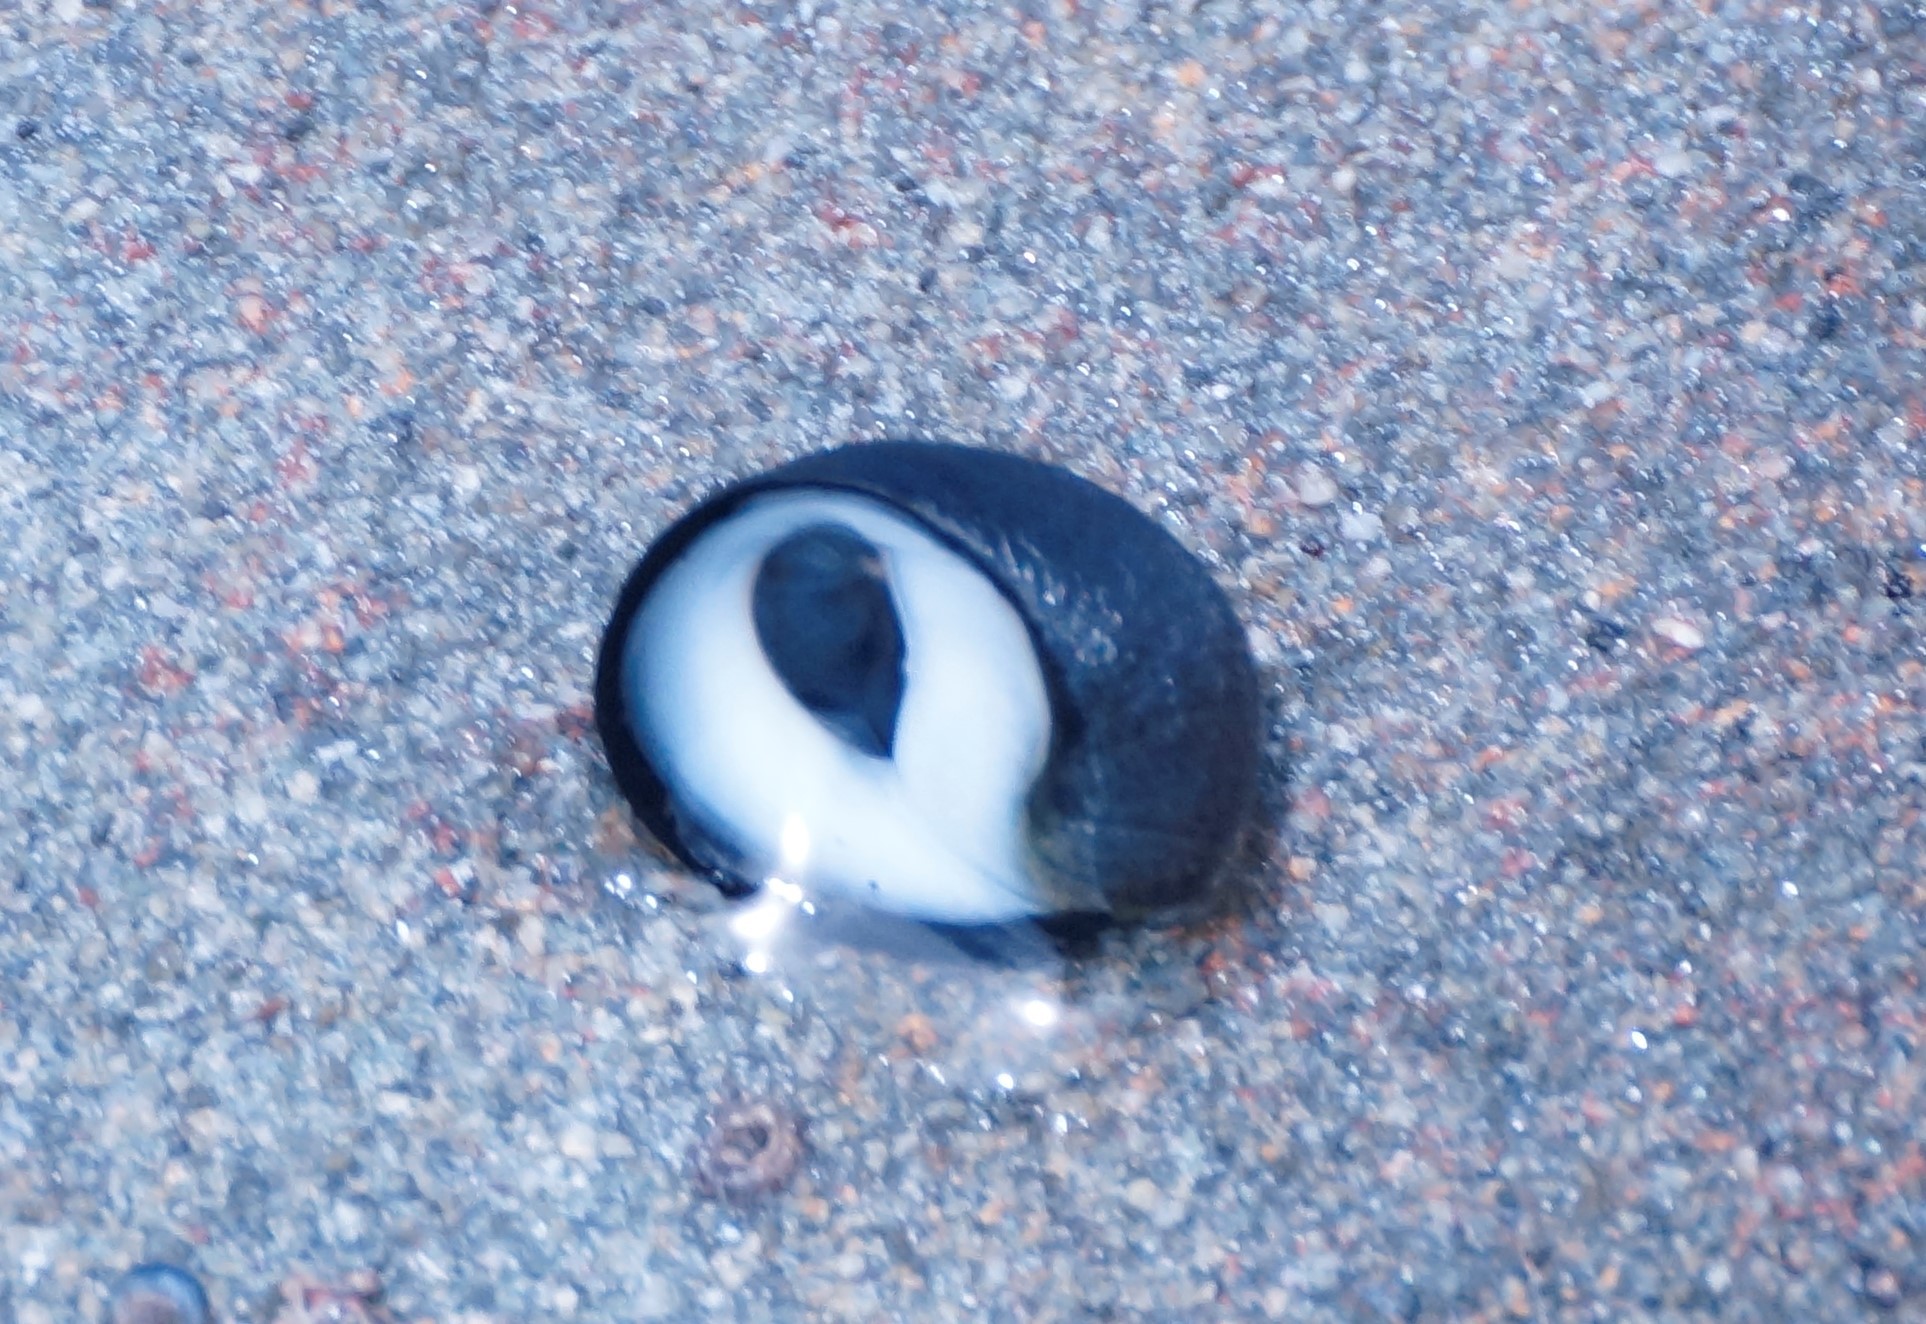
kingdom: Animalia
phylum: Mollusca
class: Gastropoda
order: Cycloneritida
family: Neritidae
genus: Nerita
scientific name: Nerita atramentosa
